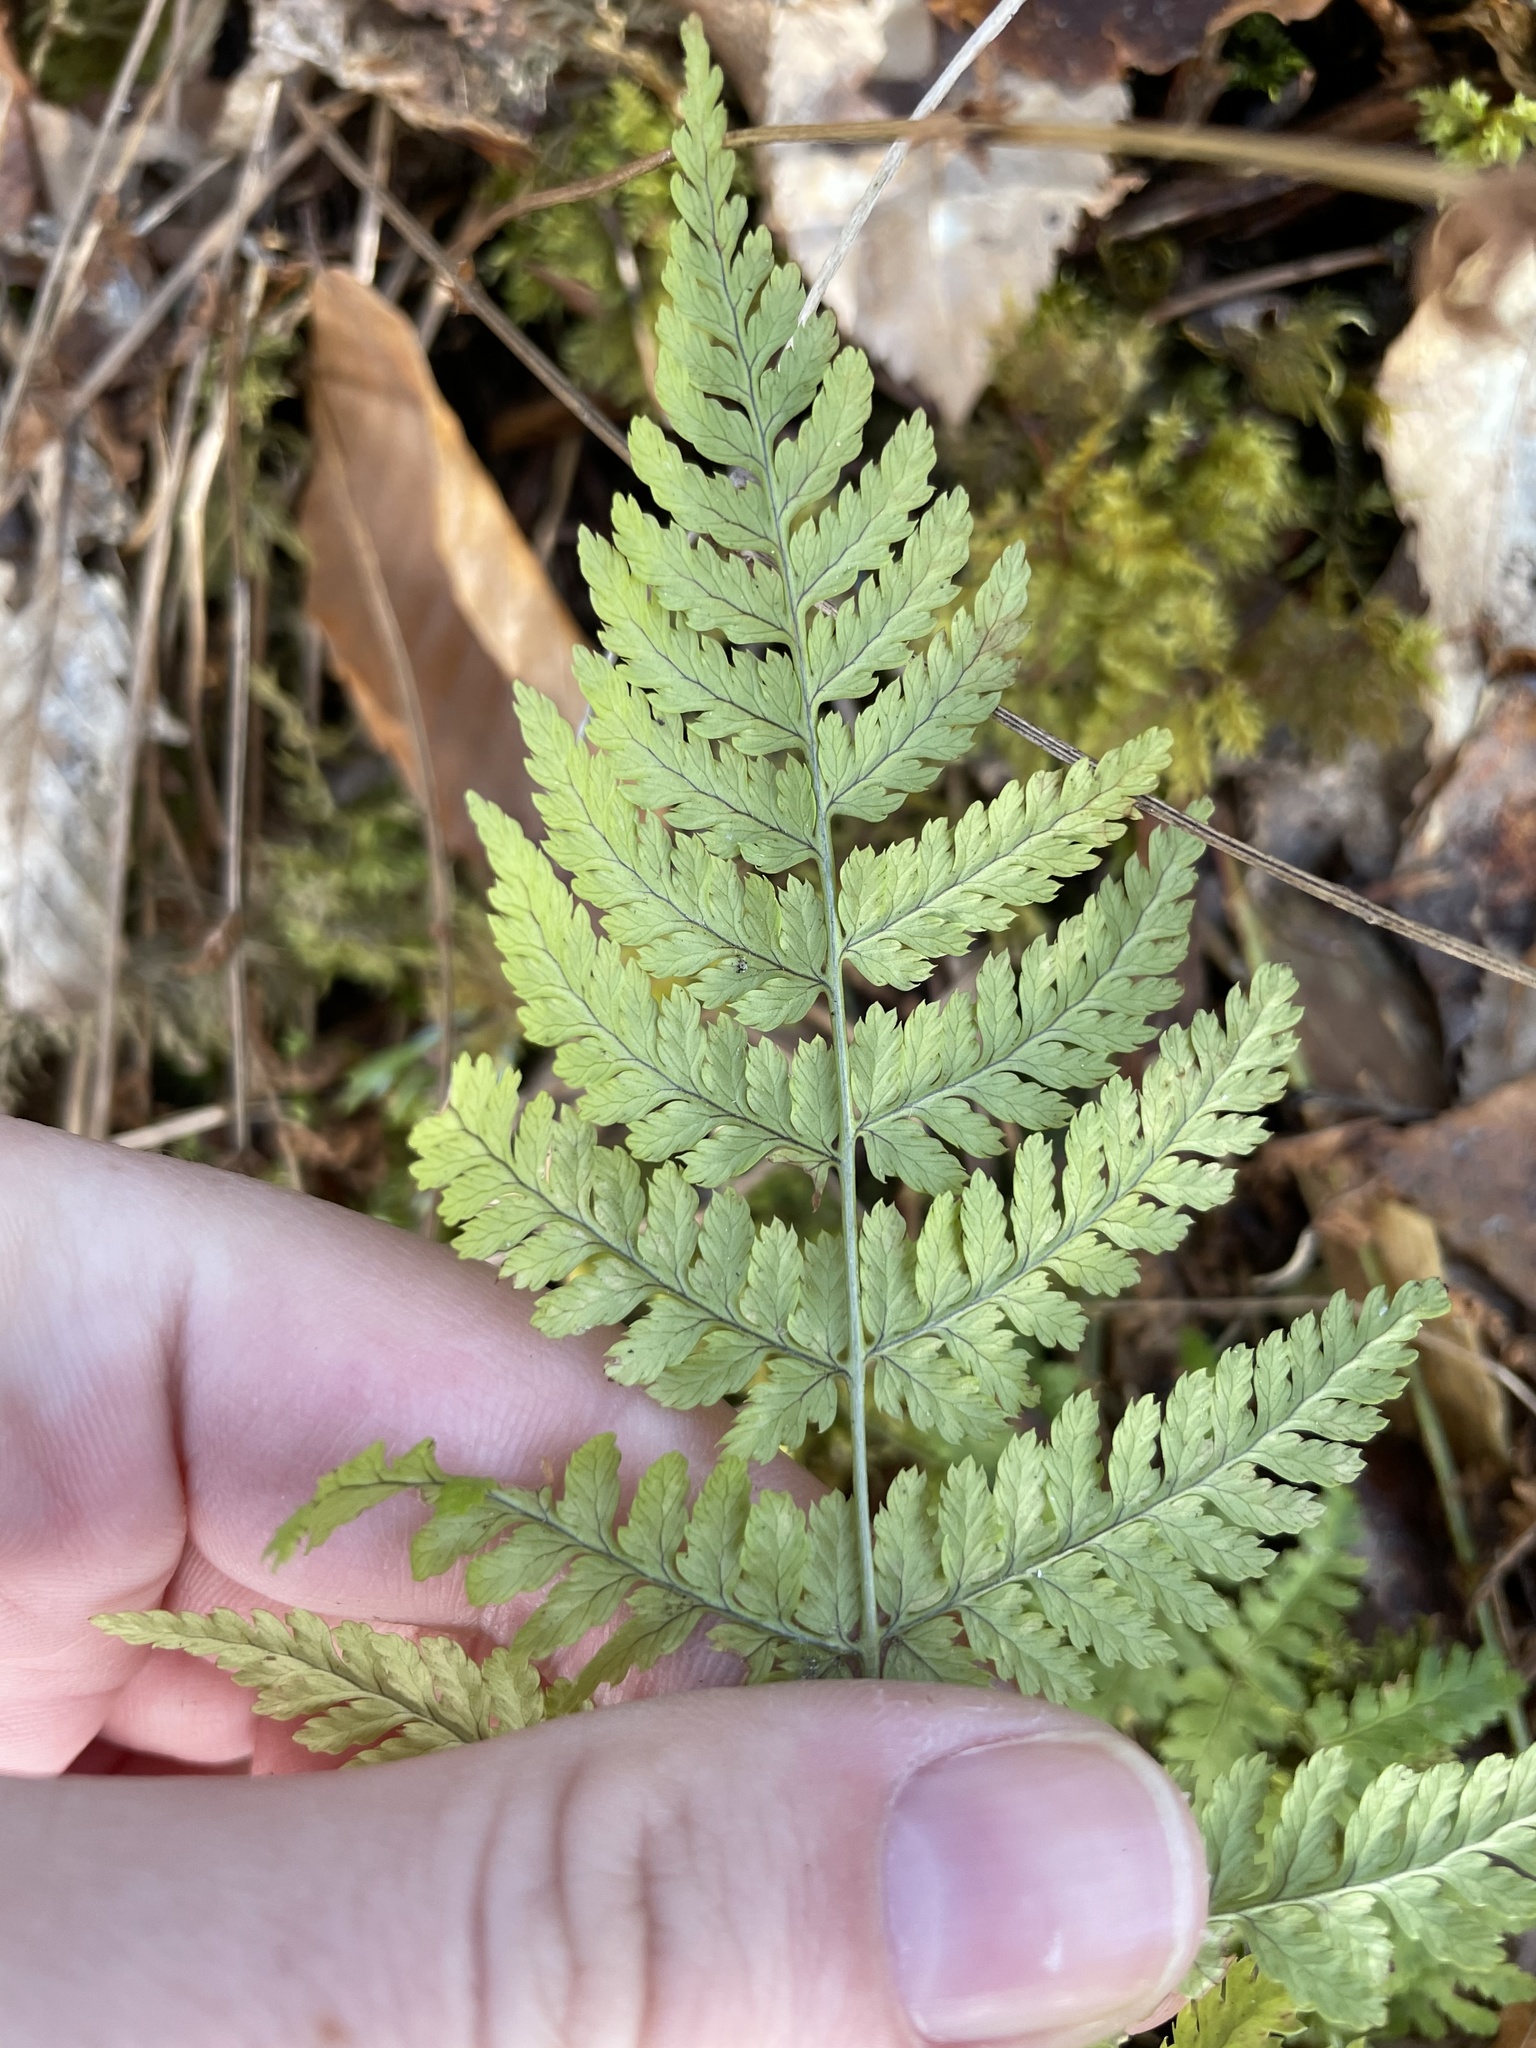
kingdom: Plantae
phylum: Tracheophyta
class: Polypodiopsida
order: Polypodiales
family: Dryopteridaceae
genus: Dryopteris
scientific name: Dryopteris intermedia
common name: Evergreen wood fern
